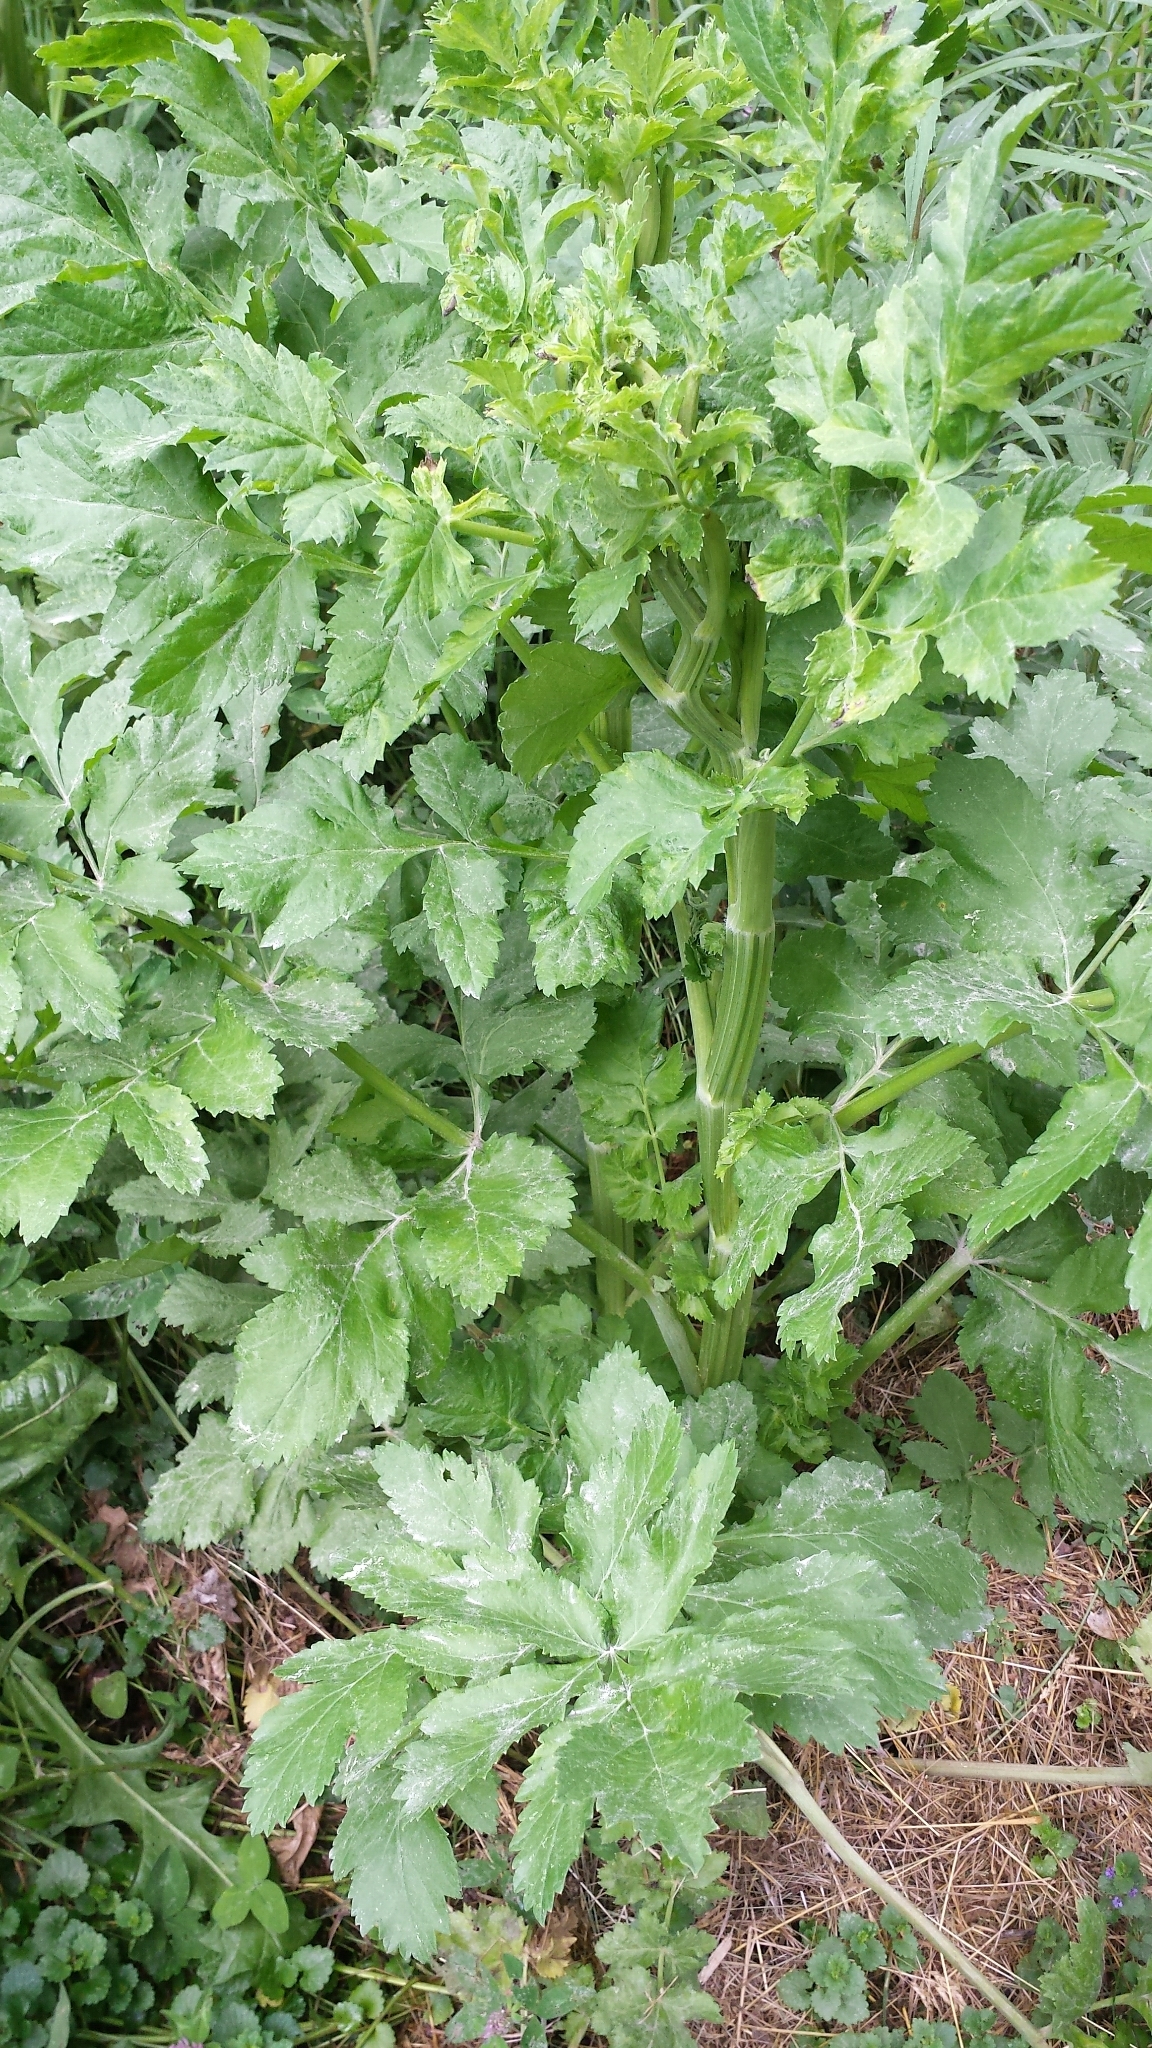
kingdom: Plantae
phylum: Tracheophyta
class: Magnoliopsida
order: Apiales
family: Apiaceae
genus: Pastinaca
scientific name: Pastinaca sativa
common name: Wild parsnip
